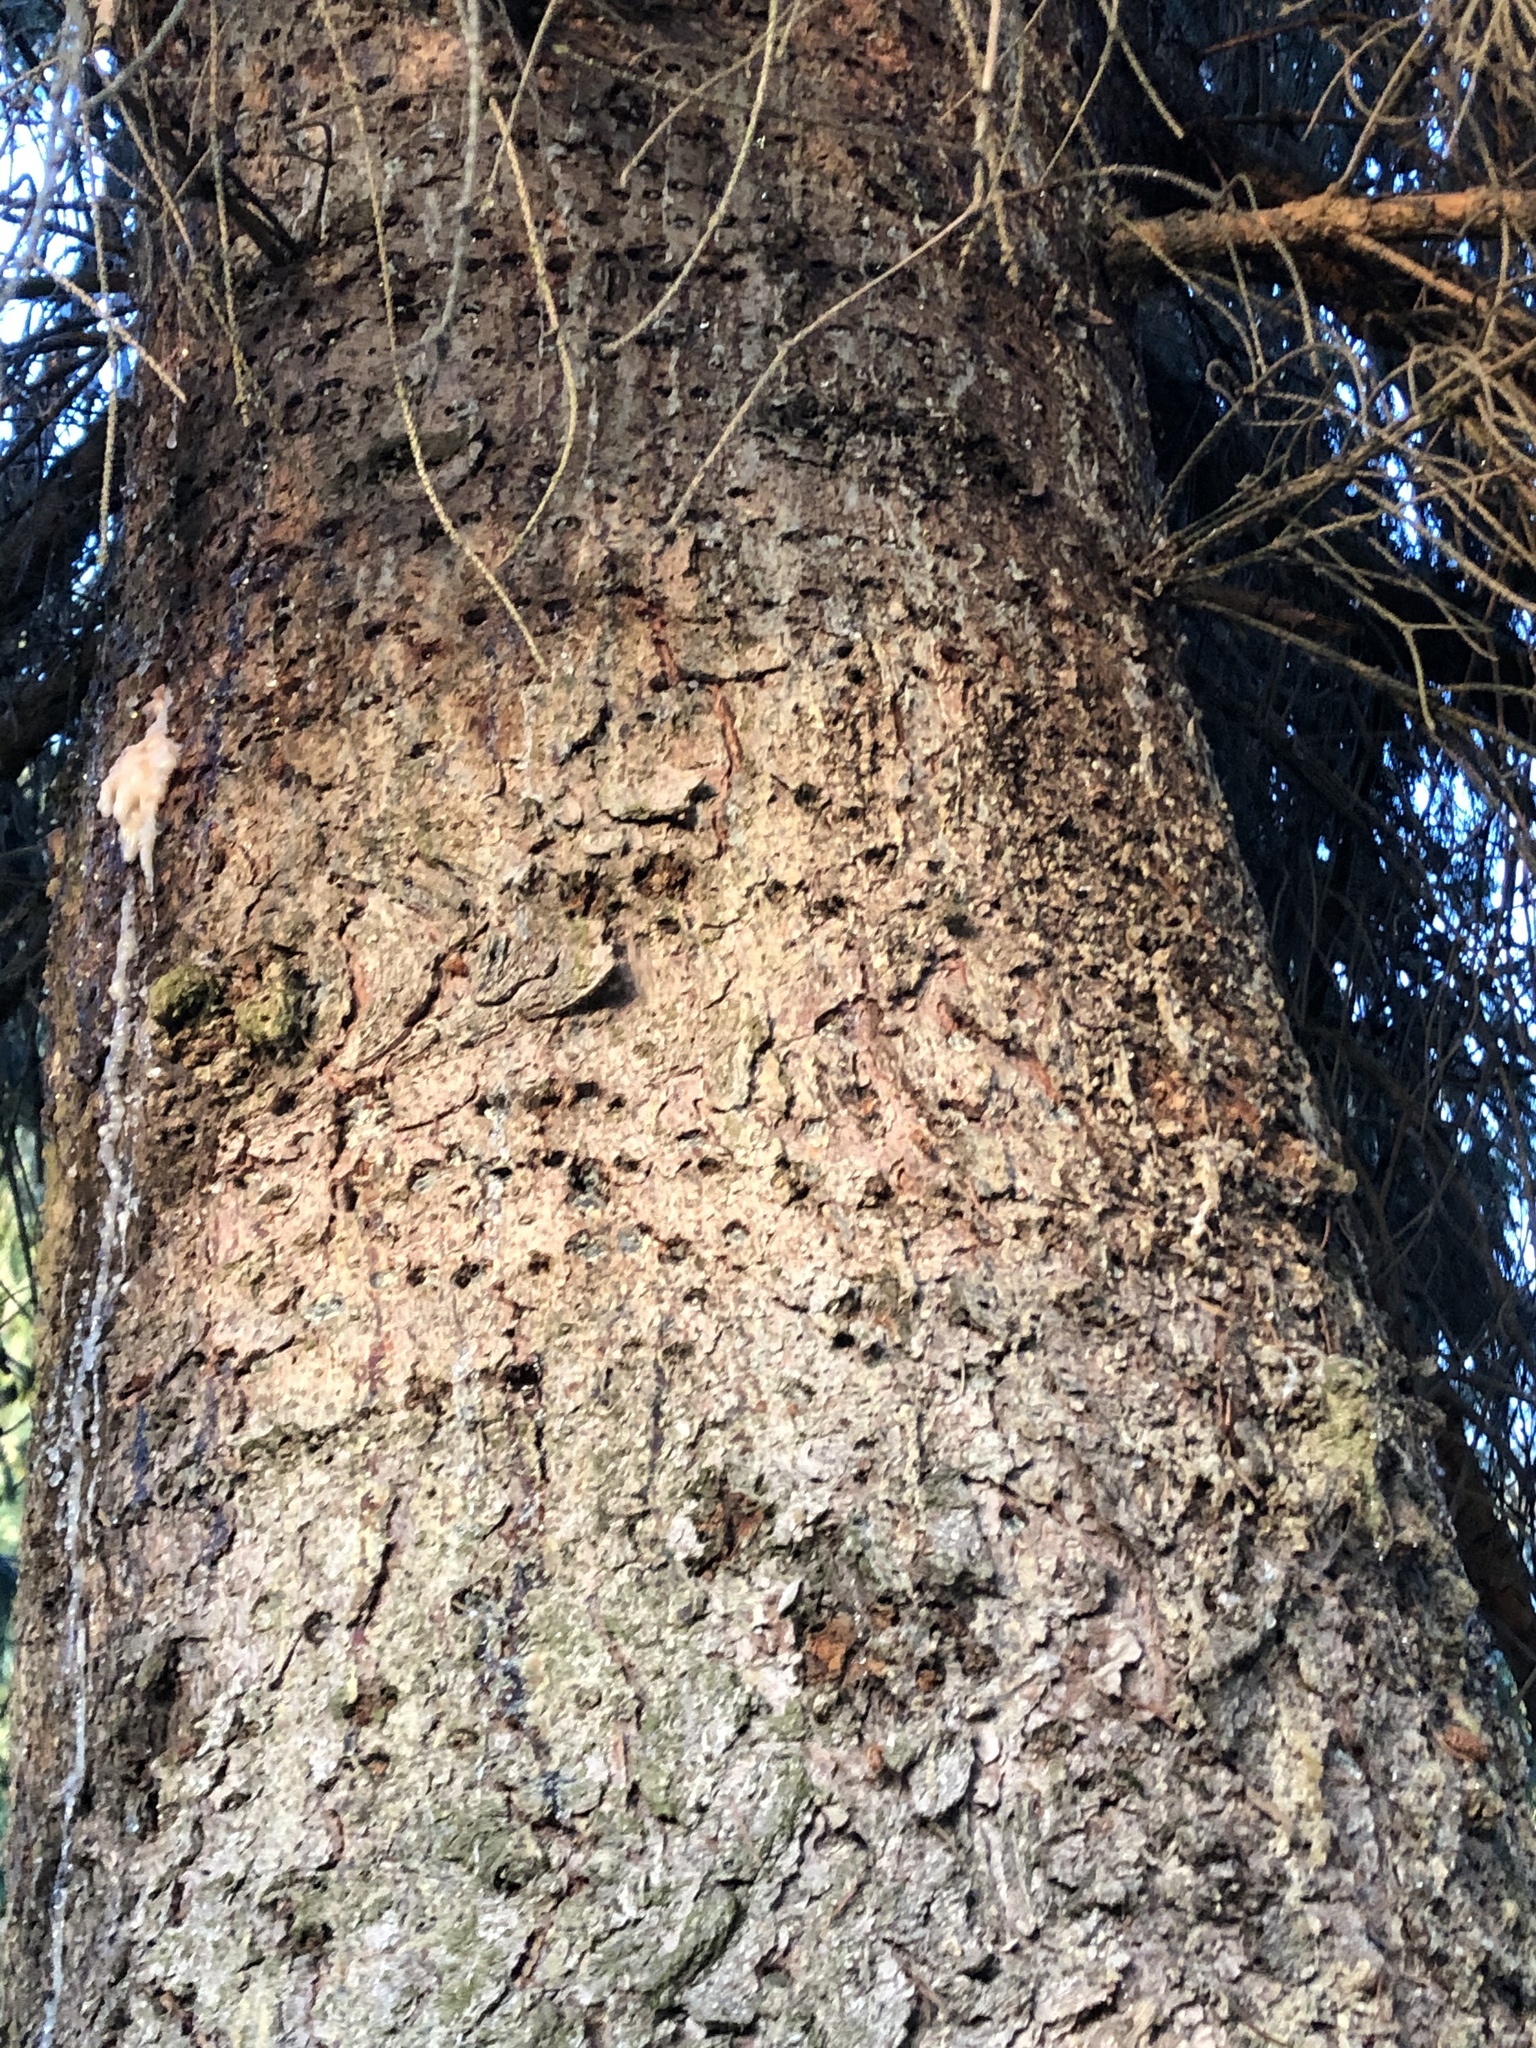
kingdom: Animalia
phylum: Chordata
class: Aves
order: Piciformes
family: Picidae
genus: Sphyrapicus
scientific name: Sphyrapicus ruber
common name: Red-breasted sapsucker
